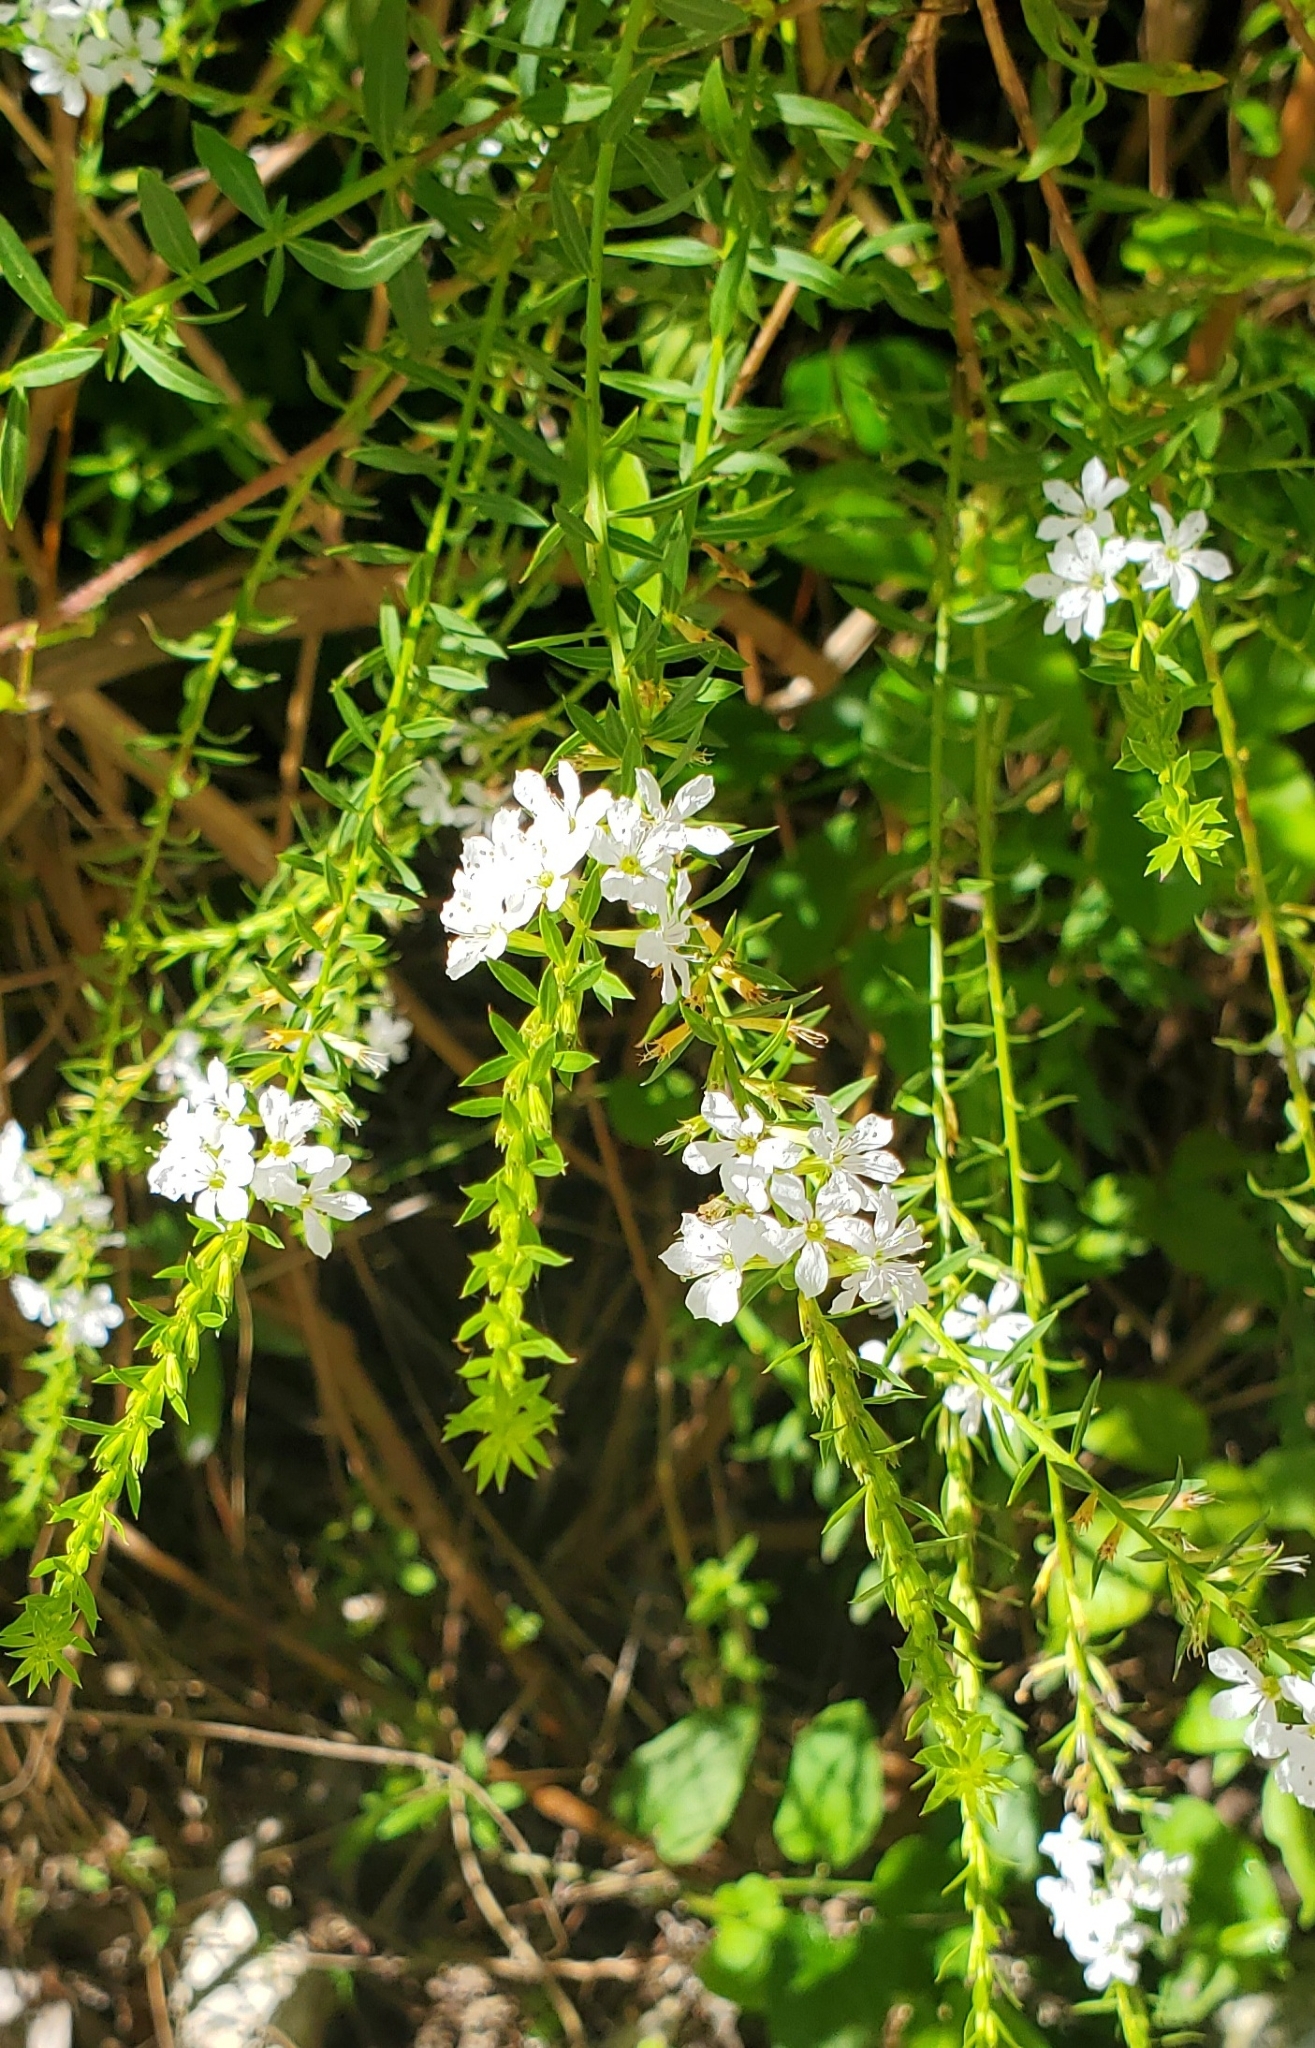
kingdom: Plantae
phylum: Tracheophyta
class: Magnoliopsida
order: Myrtales
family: Lythraceae
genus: Lythrum
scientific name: Lythrum lineare
